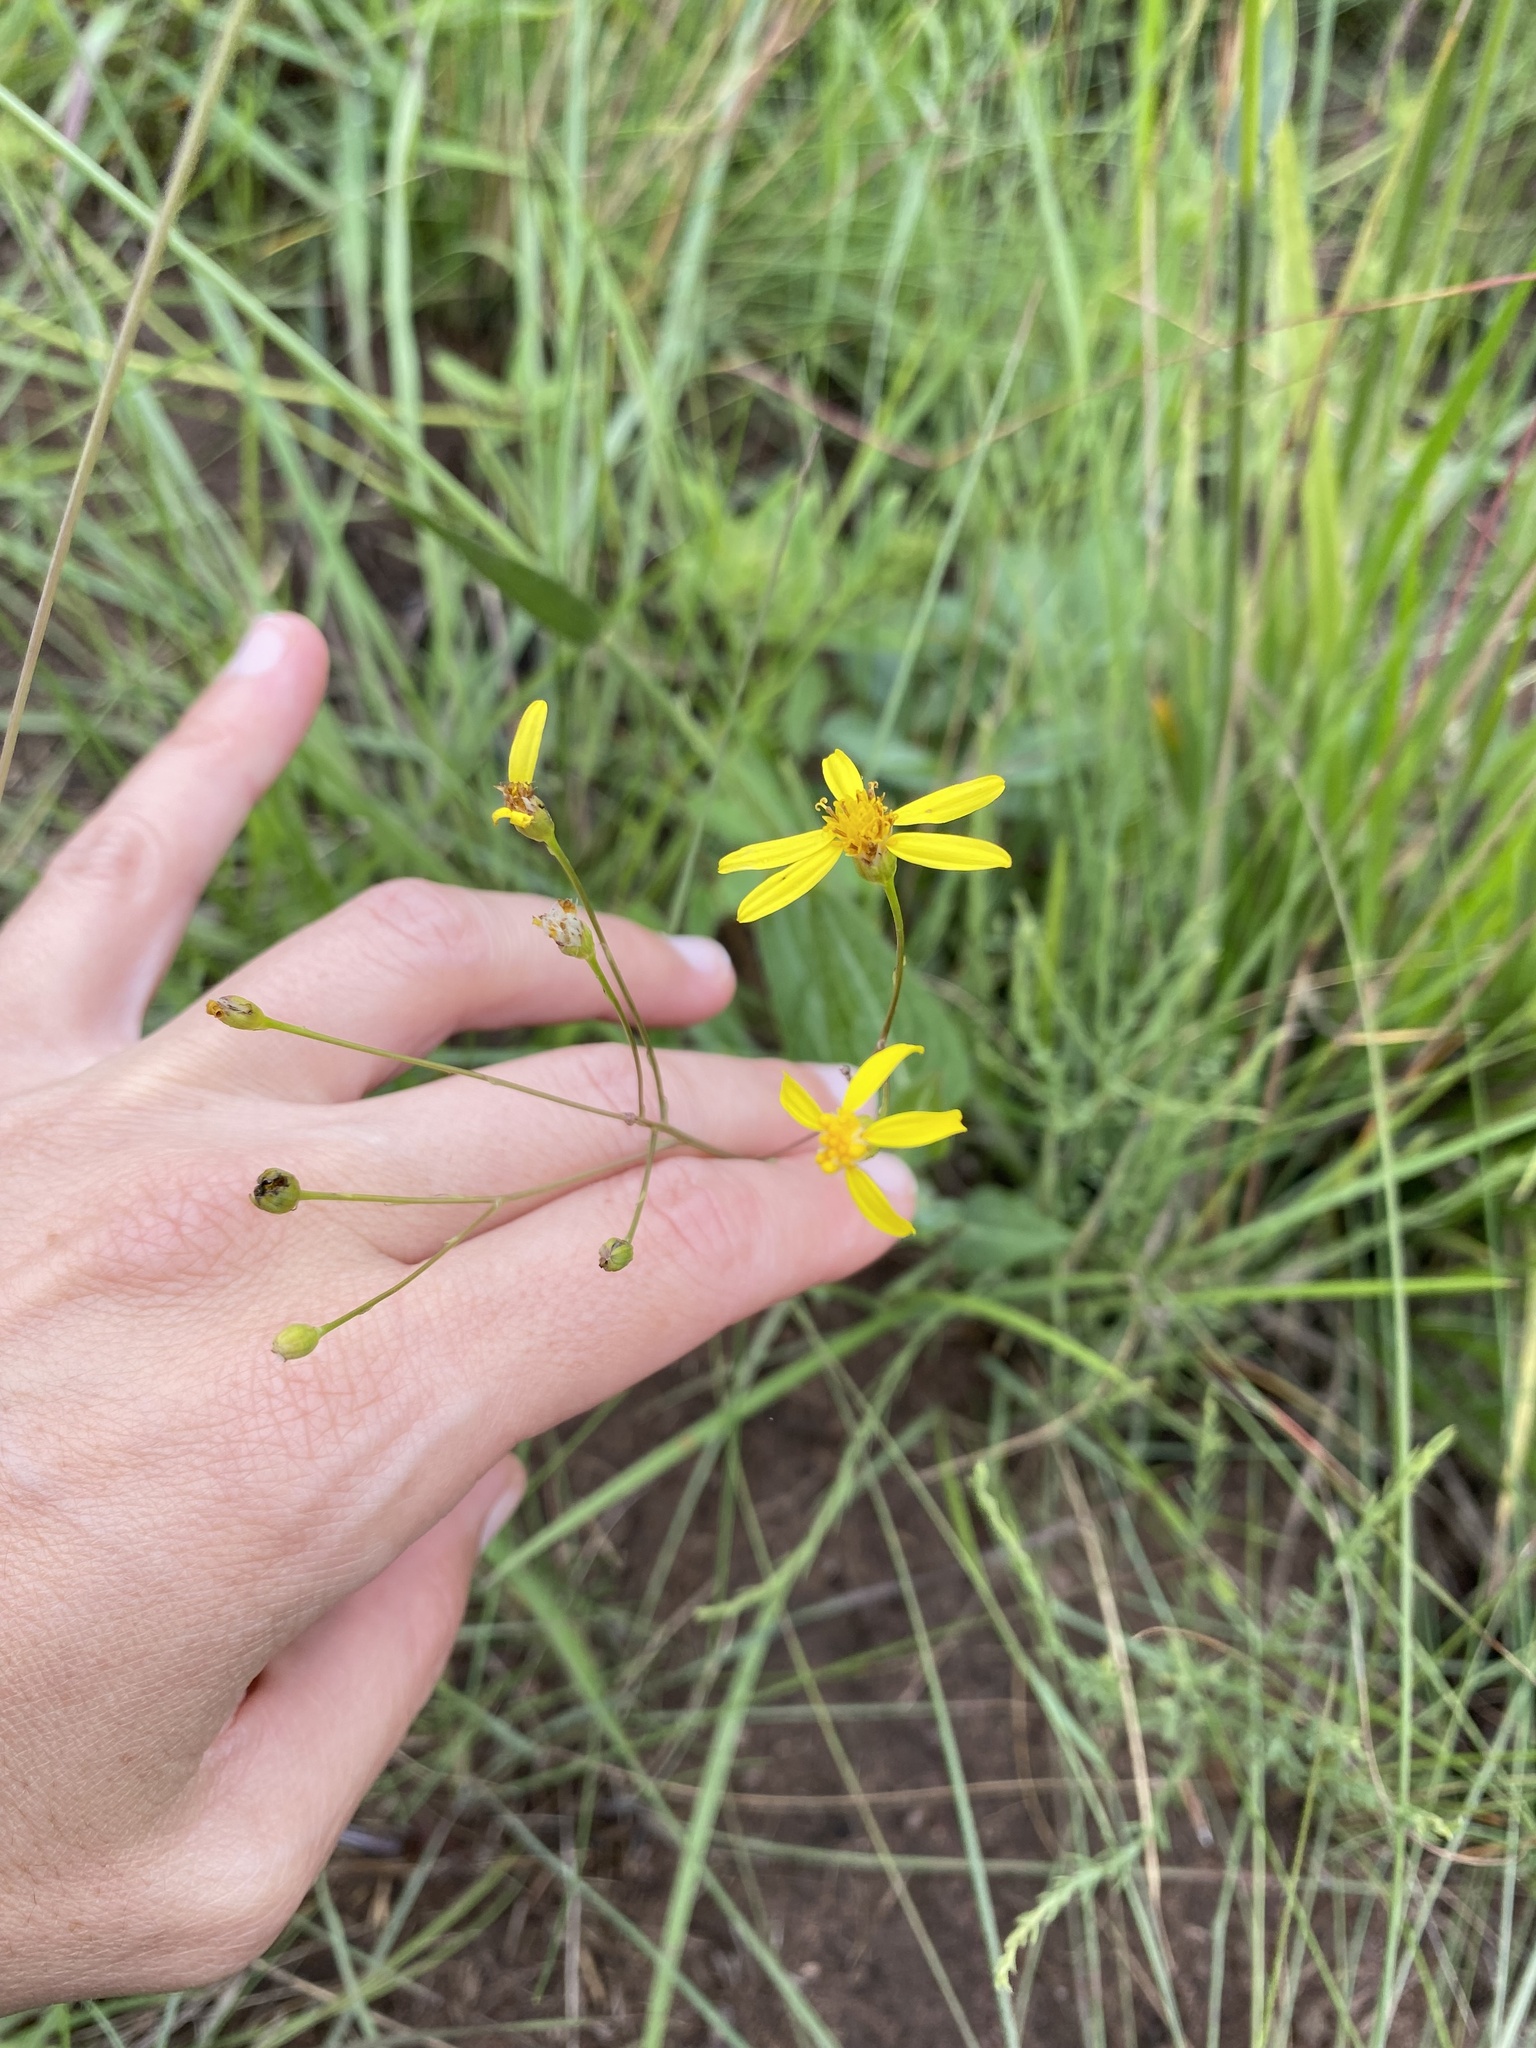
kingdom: Plantae
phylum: Tracheophyta
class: Magnoliopsida
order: Asterales
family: Asteraceae
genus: Senecio
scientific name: Senecio bupleuroides
